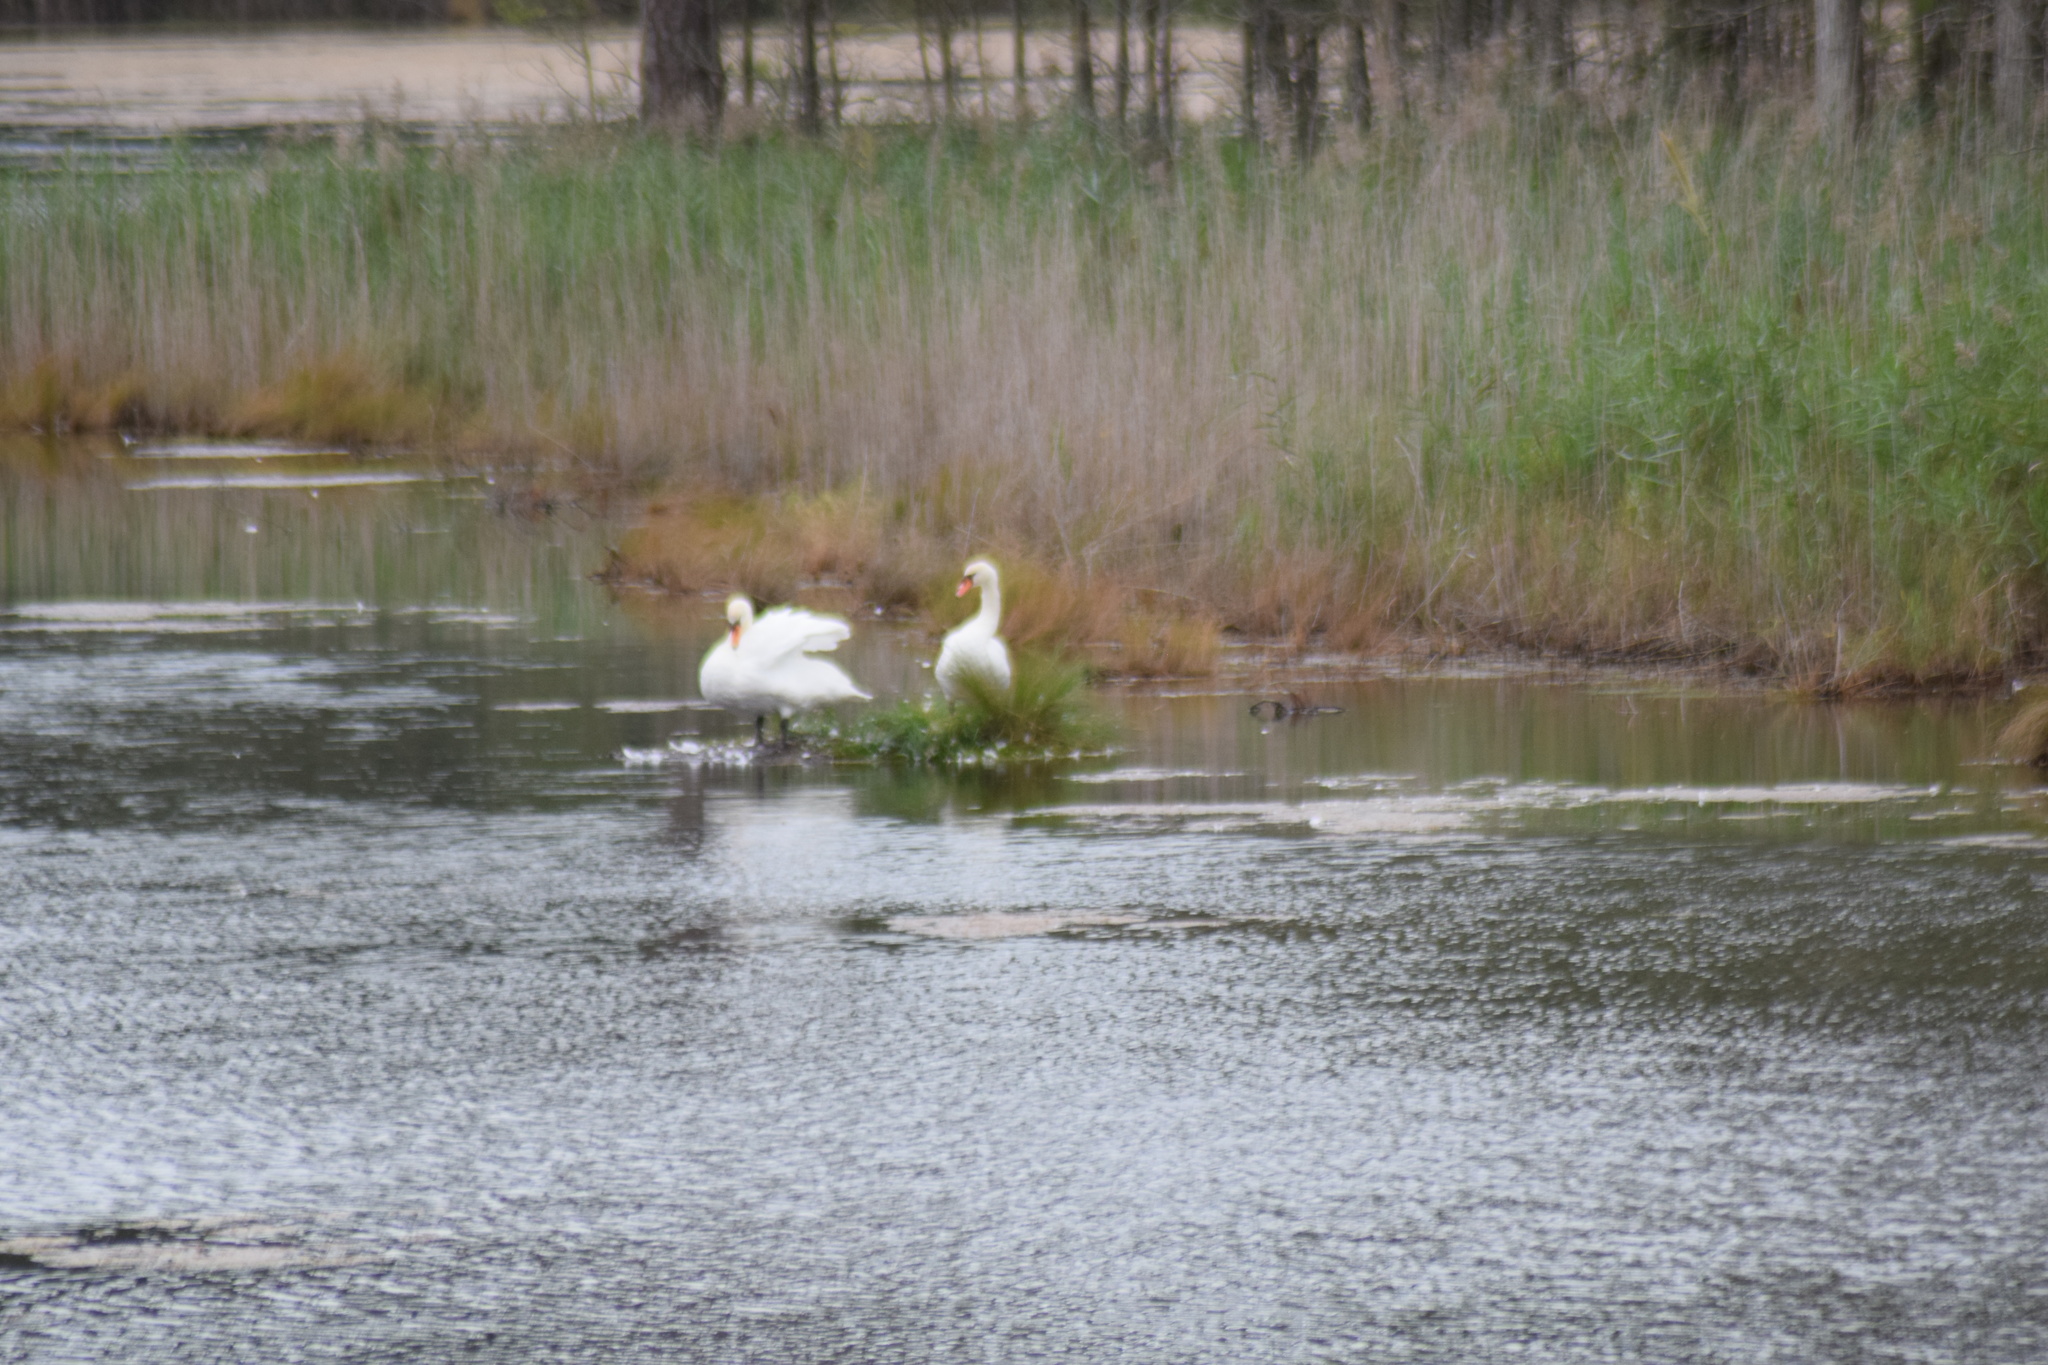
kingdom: Animalia
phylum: Chordata
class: Aves
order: Anseriformes
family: Anatidae
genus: Cygnus
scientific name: Cygnus olor
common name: Mute swan
